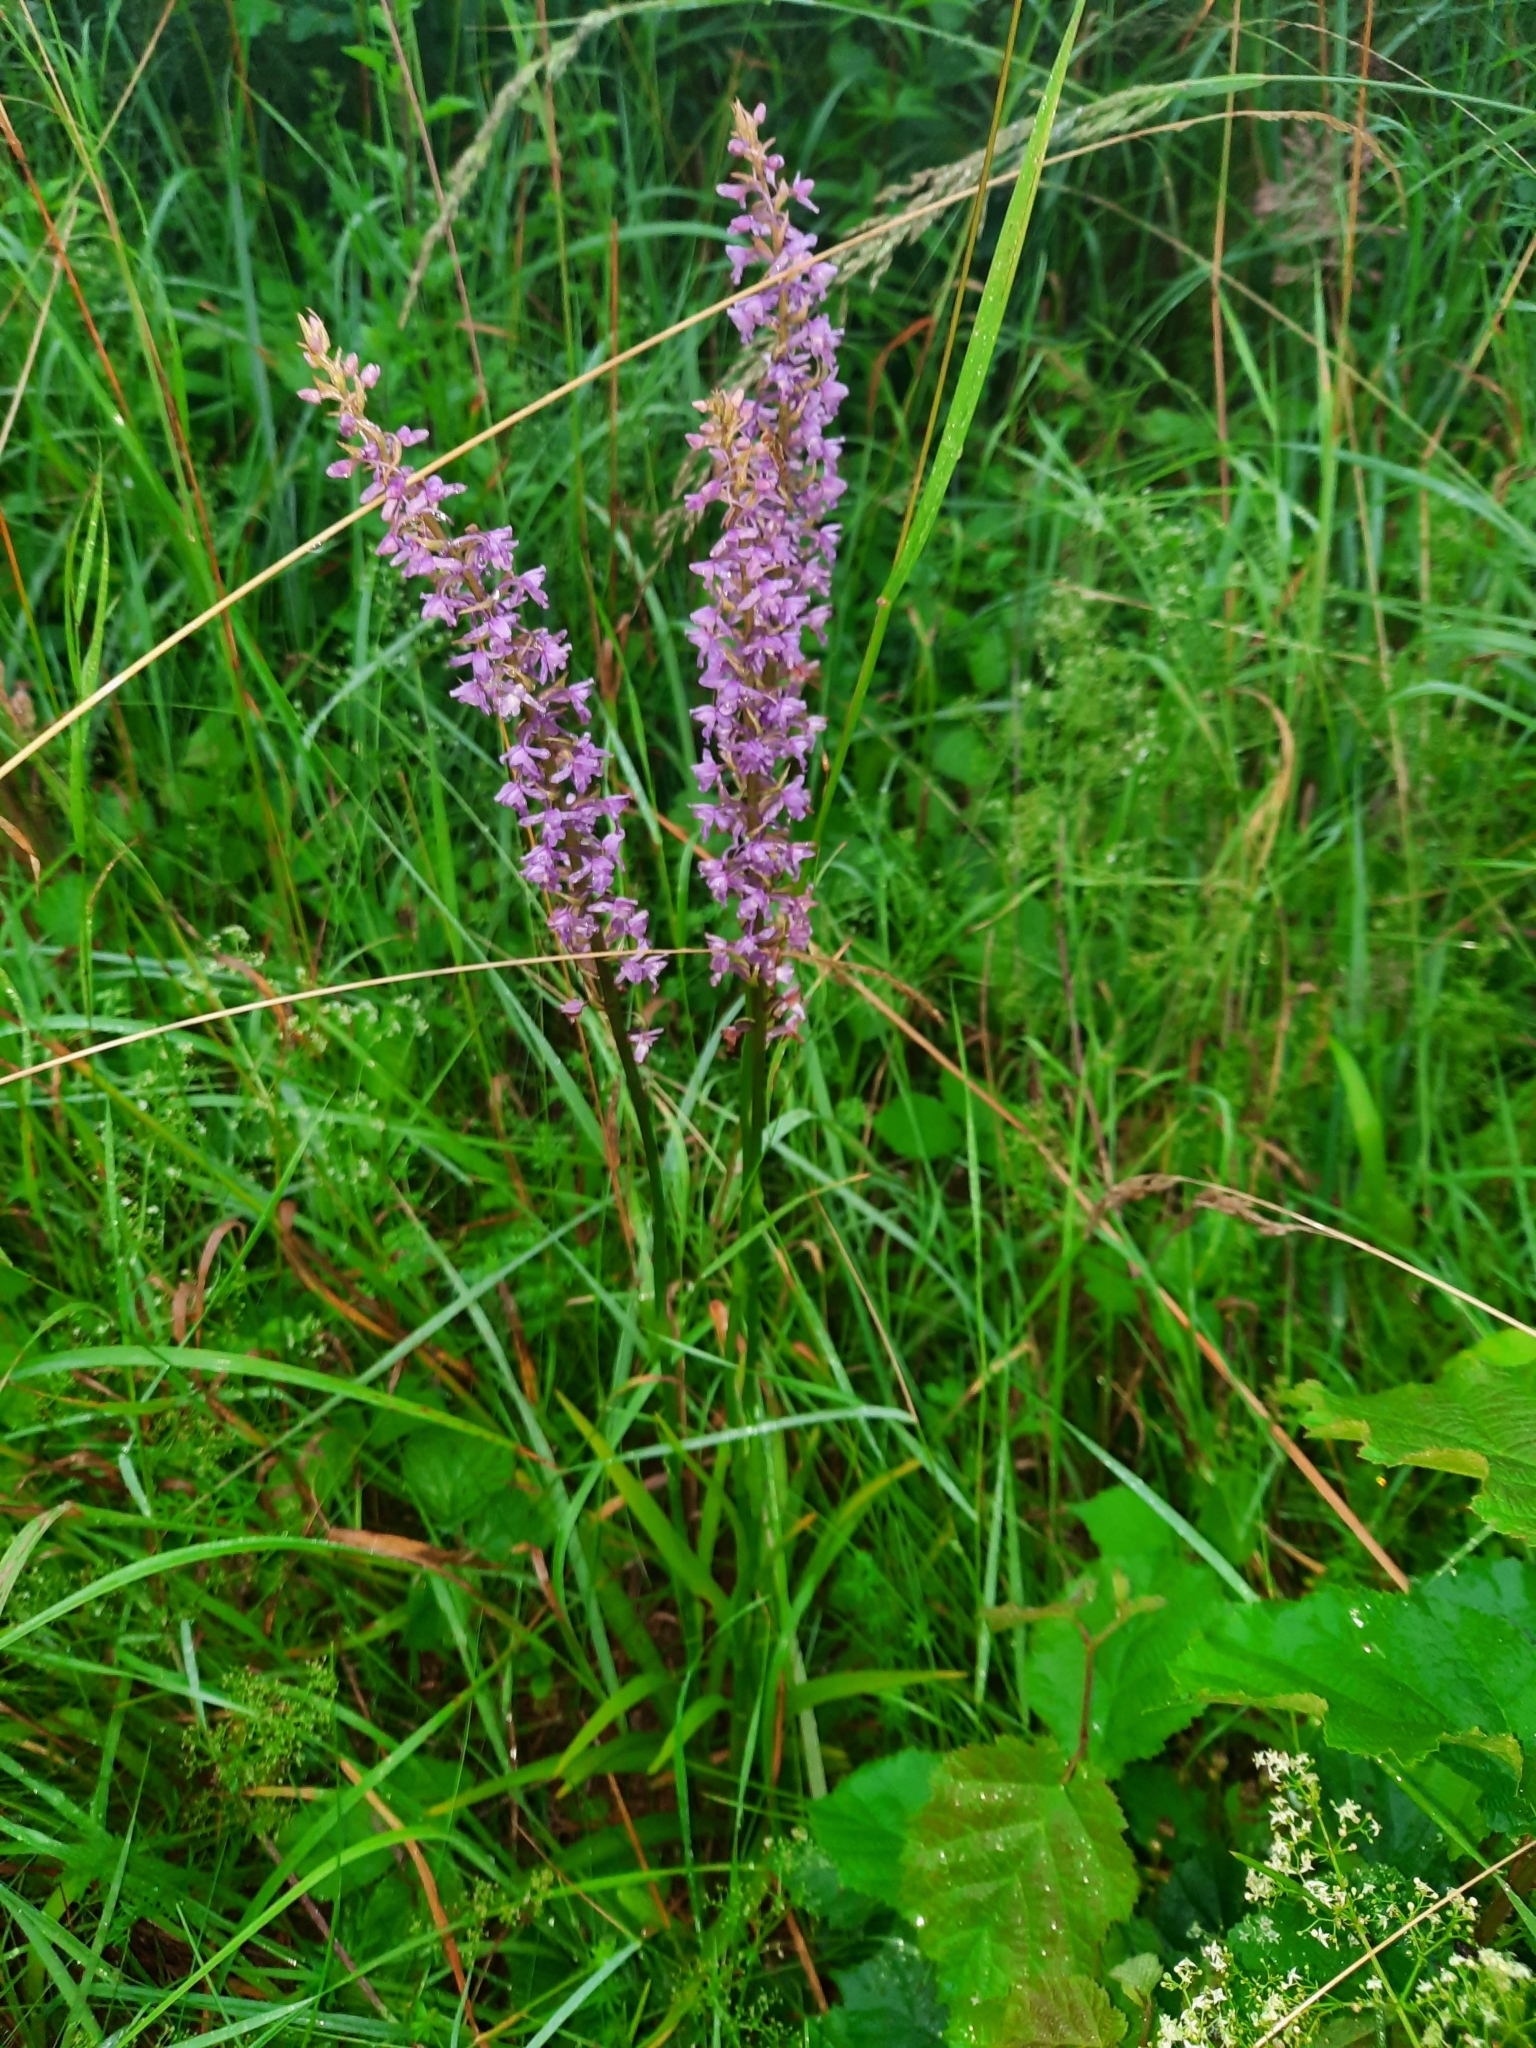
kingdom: Plantae
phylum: Tracheophyta
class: Liliopsida
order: Asparagales
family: Orchidaceae
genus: Gymnadenia
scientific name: Gymnadenia conopsea
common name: Fragrant orchid
